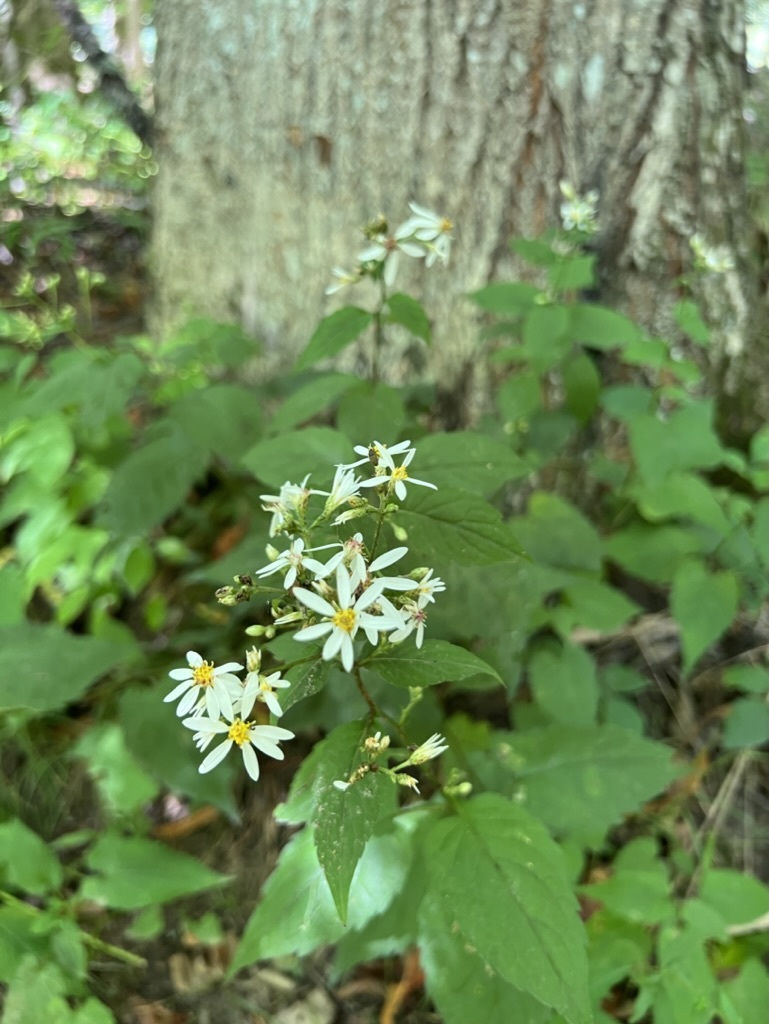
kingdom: Plantae
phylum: Tracheophyta
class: Magnoliopsida
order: Asterales
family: Asteraceae
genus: Eurybia
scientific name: Eurybia divaricata
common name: White wood aster
